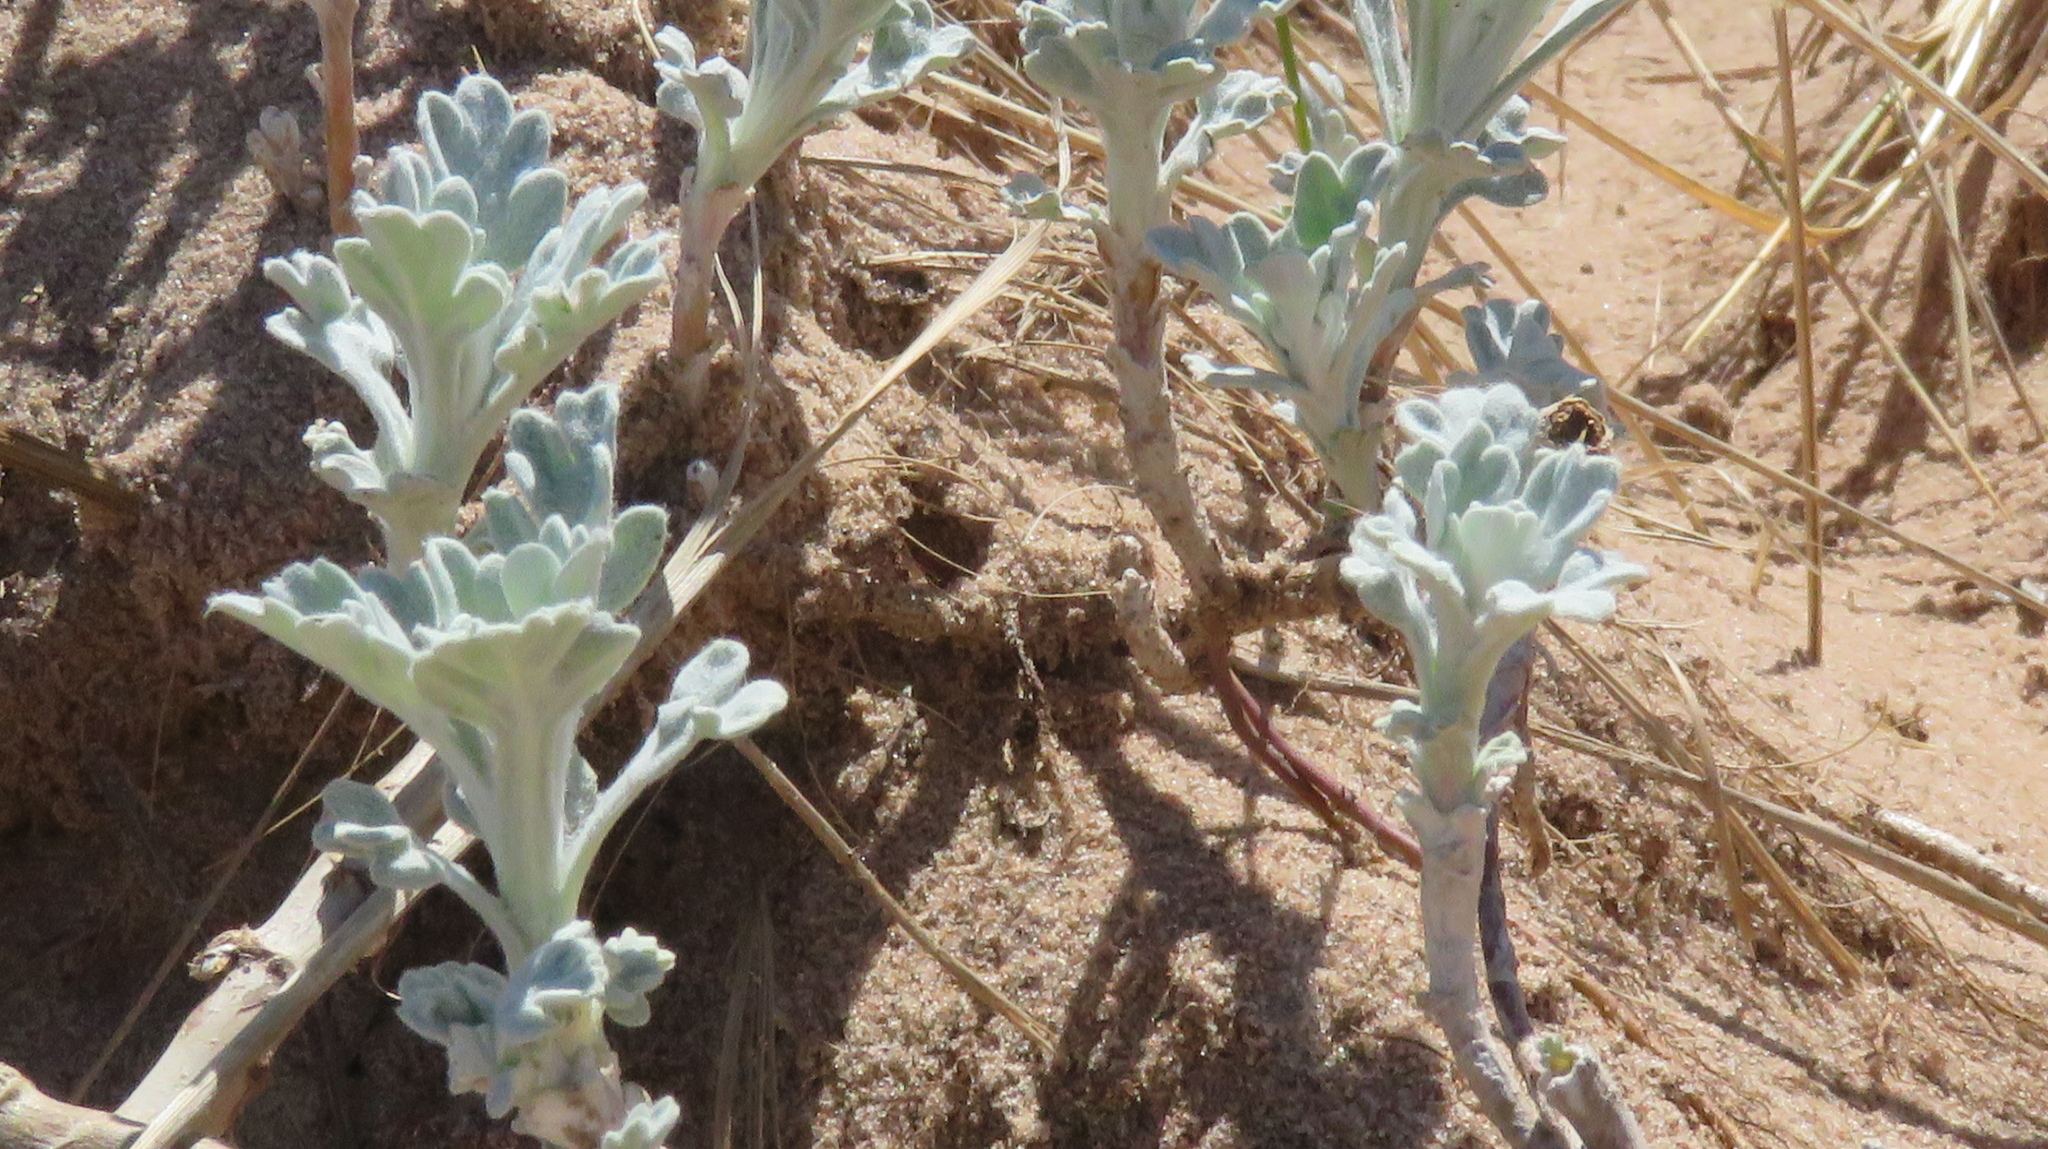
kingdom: Plantae
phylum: Tracheophyta
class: Magnoliopsida
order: Asterales
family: Asteraceae
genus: Artemisia
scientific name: Artemisia stelleriana
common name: Beach wormwood
